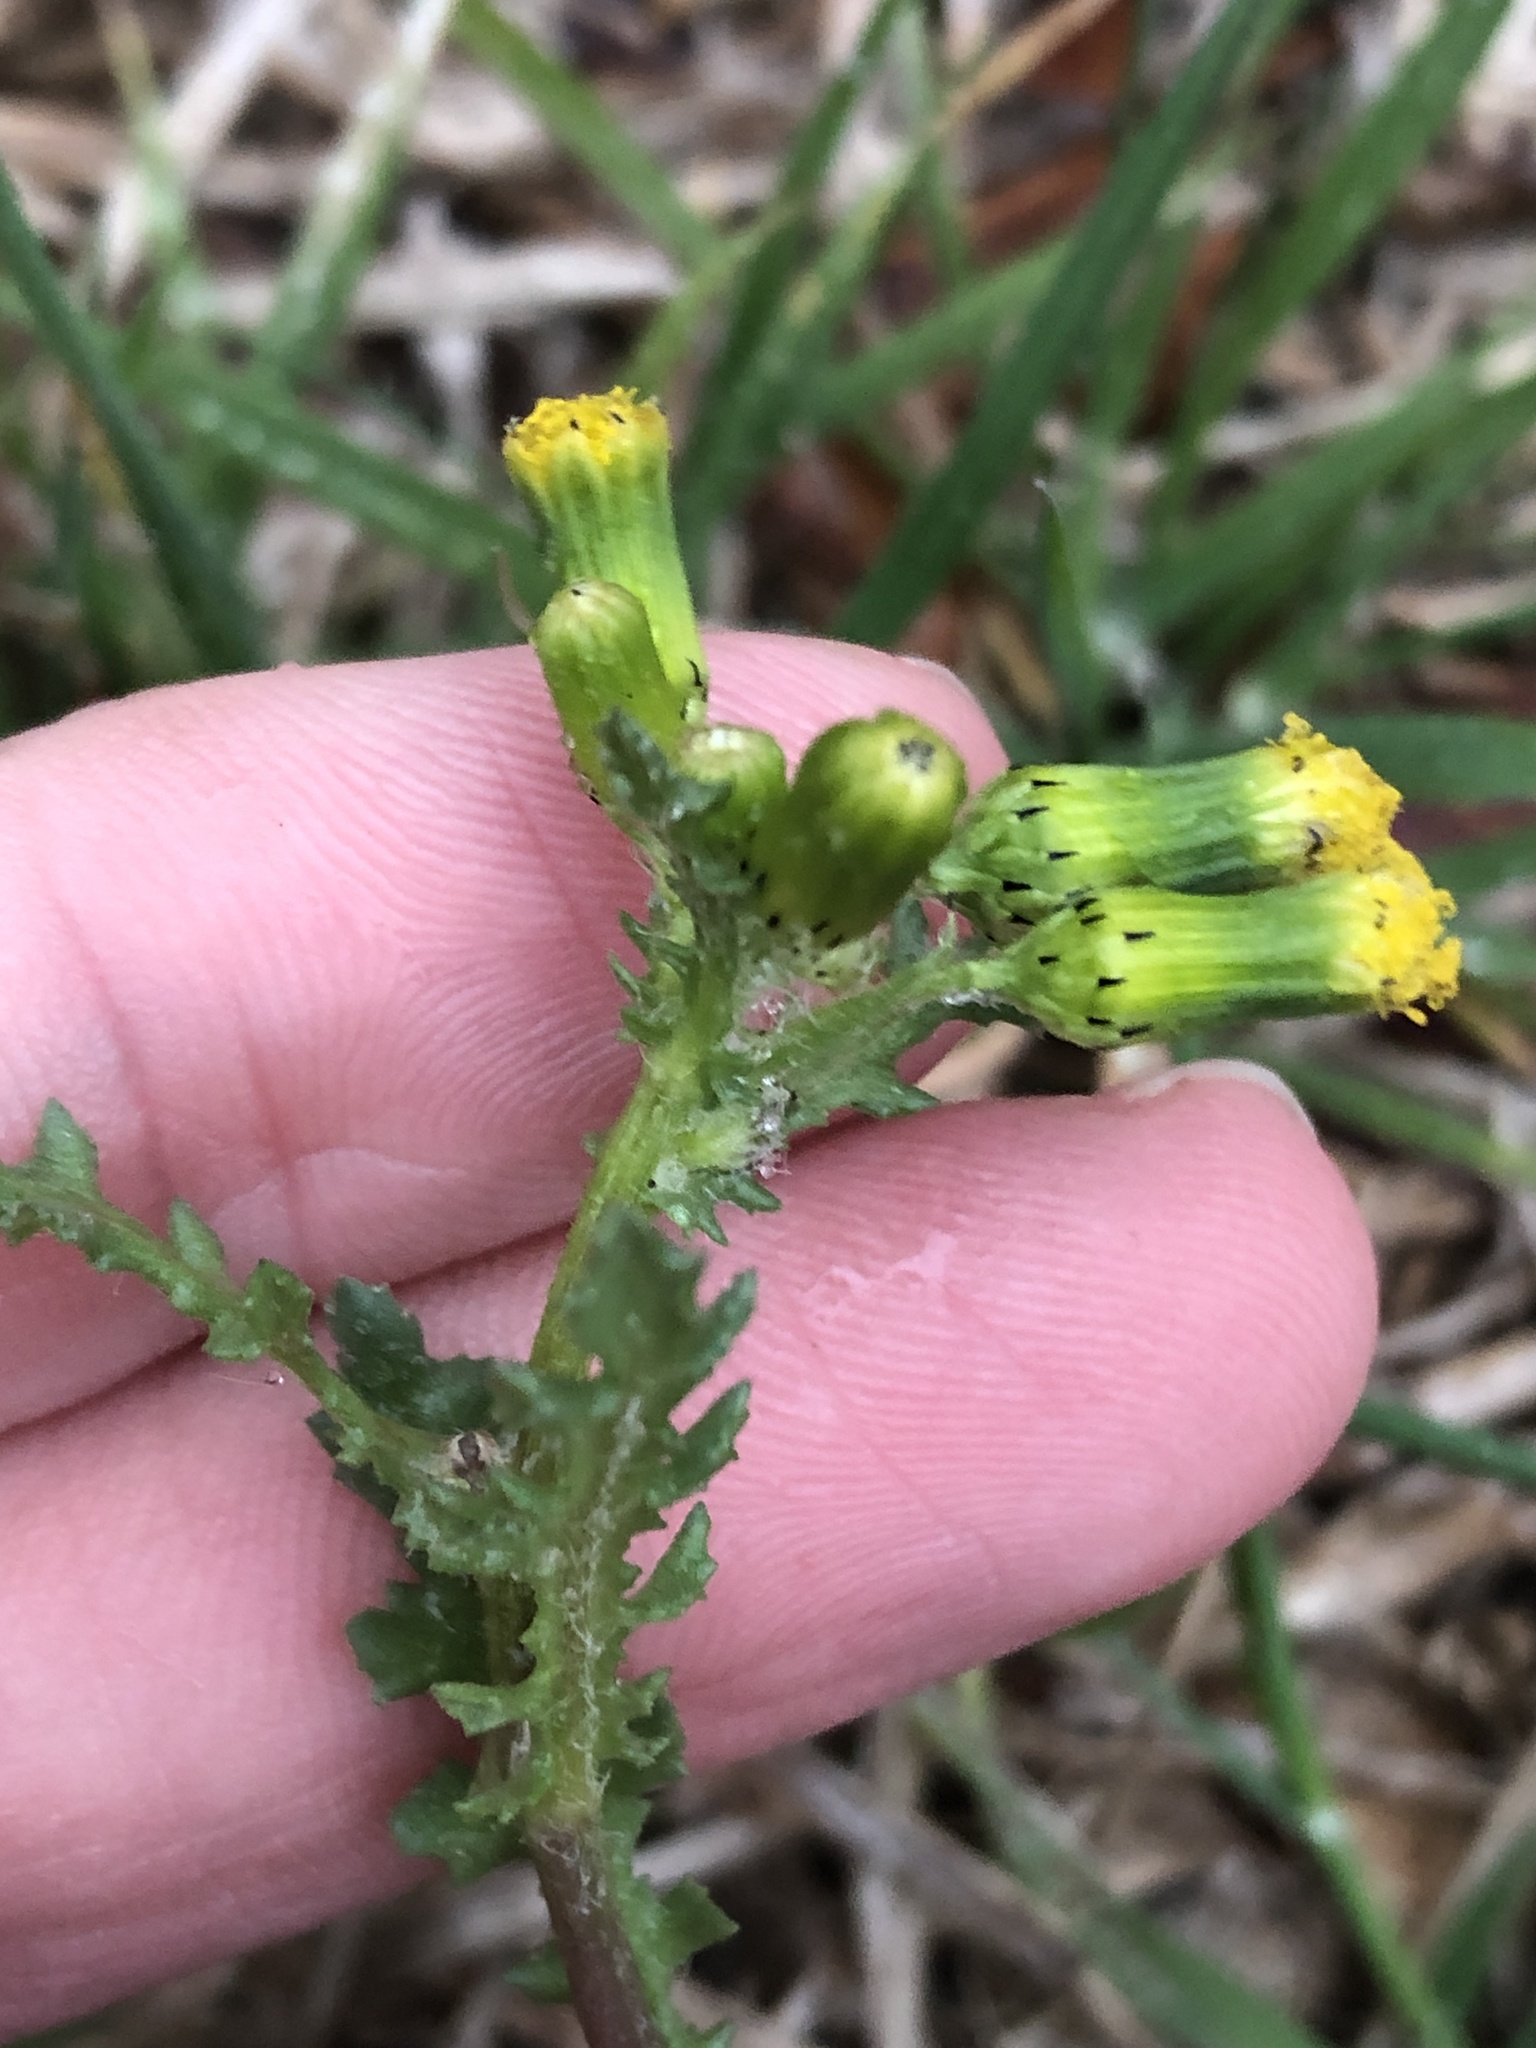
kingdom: Plantae
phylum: Tracheophyta
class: Magnoliopsida
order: Asterales
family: Asteraceae
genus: Senecio
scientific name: Senecio vulgaris
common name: Old-man-in-the-spring
